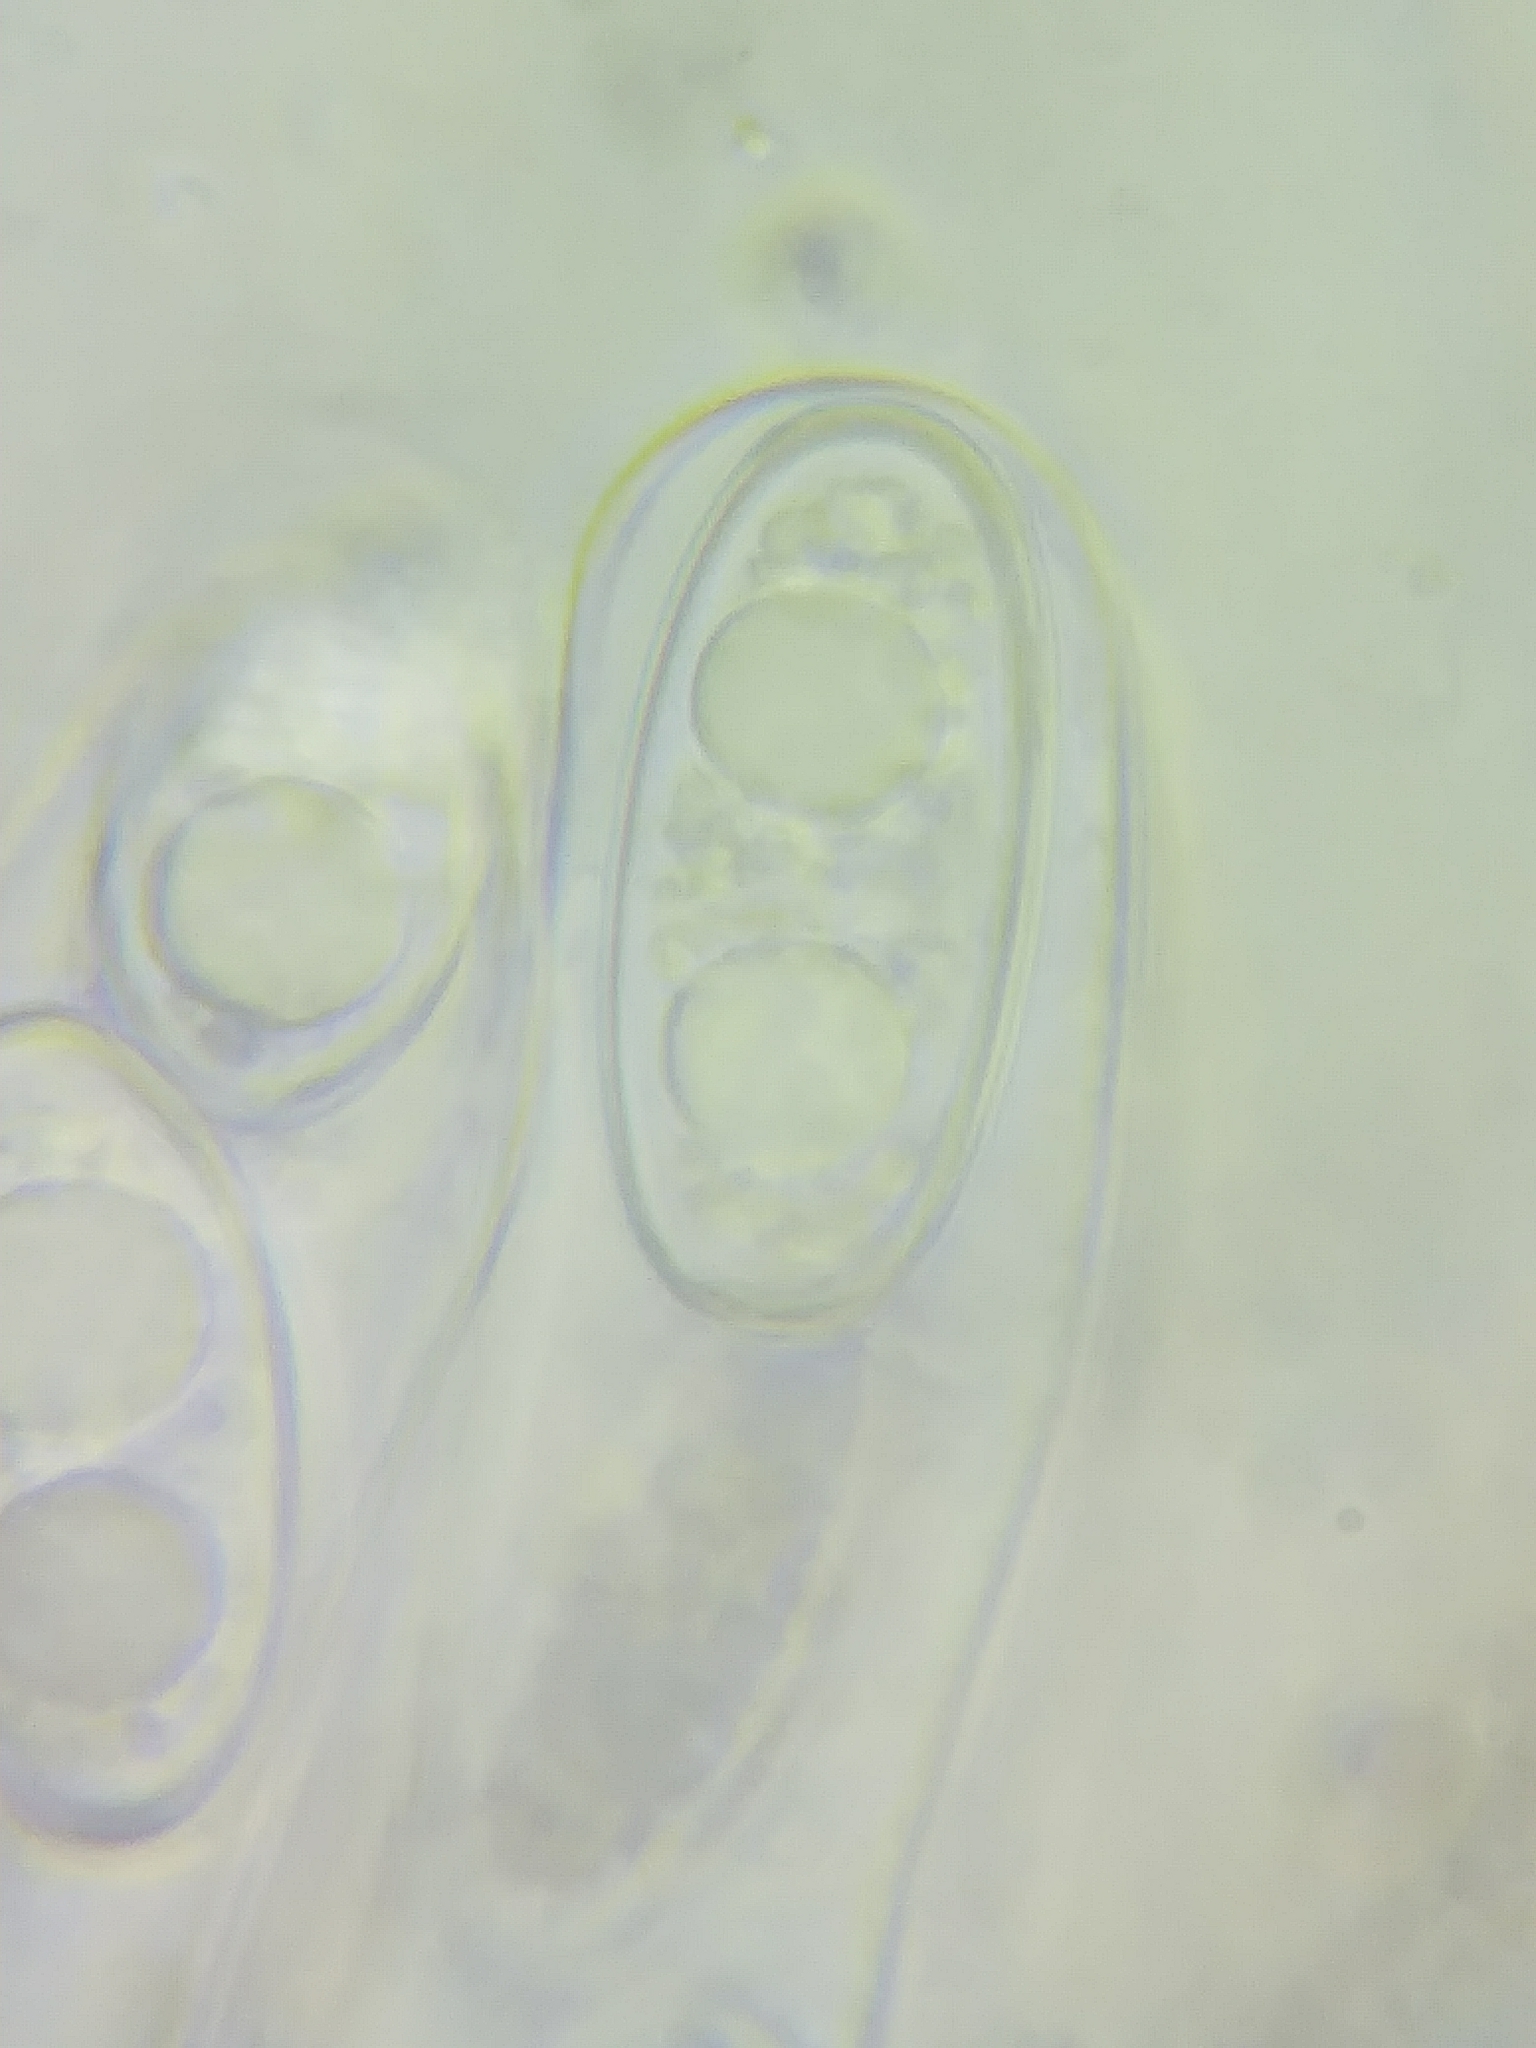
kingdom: Fungi
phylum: Ascomycota
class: Pezizomycetes
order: Pezizales
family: Pezizaceae
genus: Pachyella
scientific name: Pachyella clypeata
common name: Copper penny fungus
